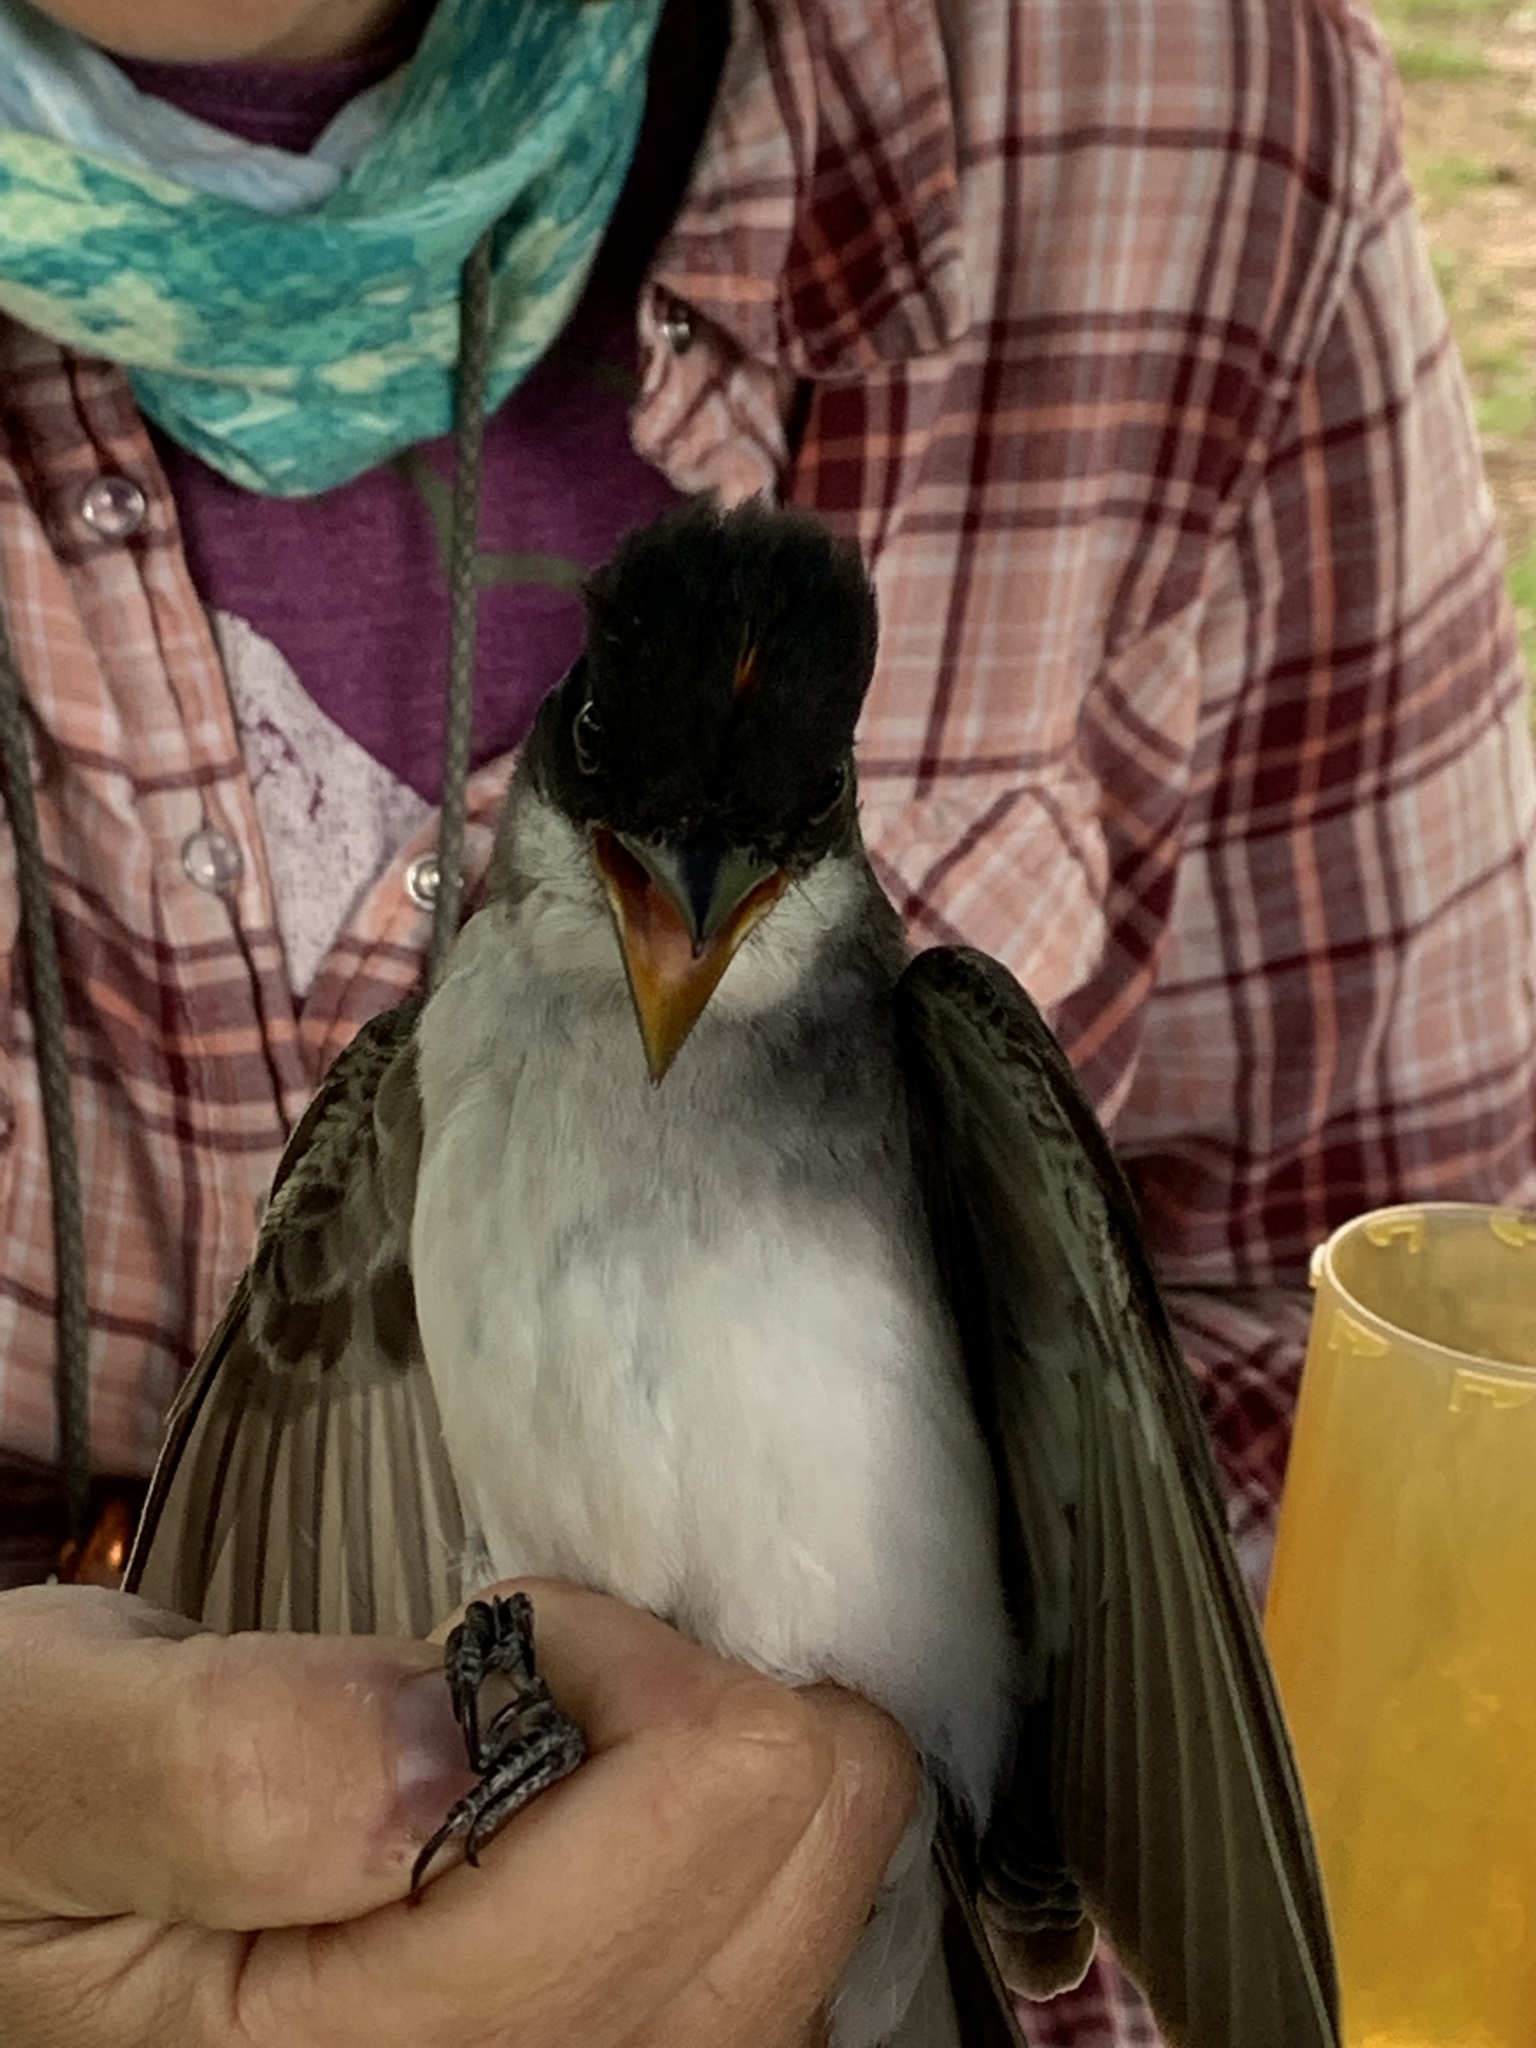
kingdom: Animalia
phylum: Chordata
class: Aves
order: Passeriformes
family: Tyrannidae
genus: Tyrannus
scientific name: Tyrannus tyrannus
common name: Eastern kingbird
